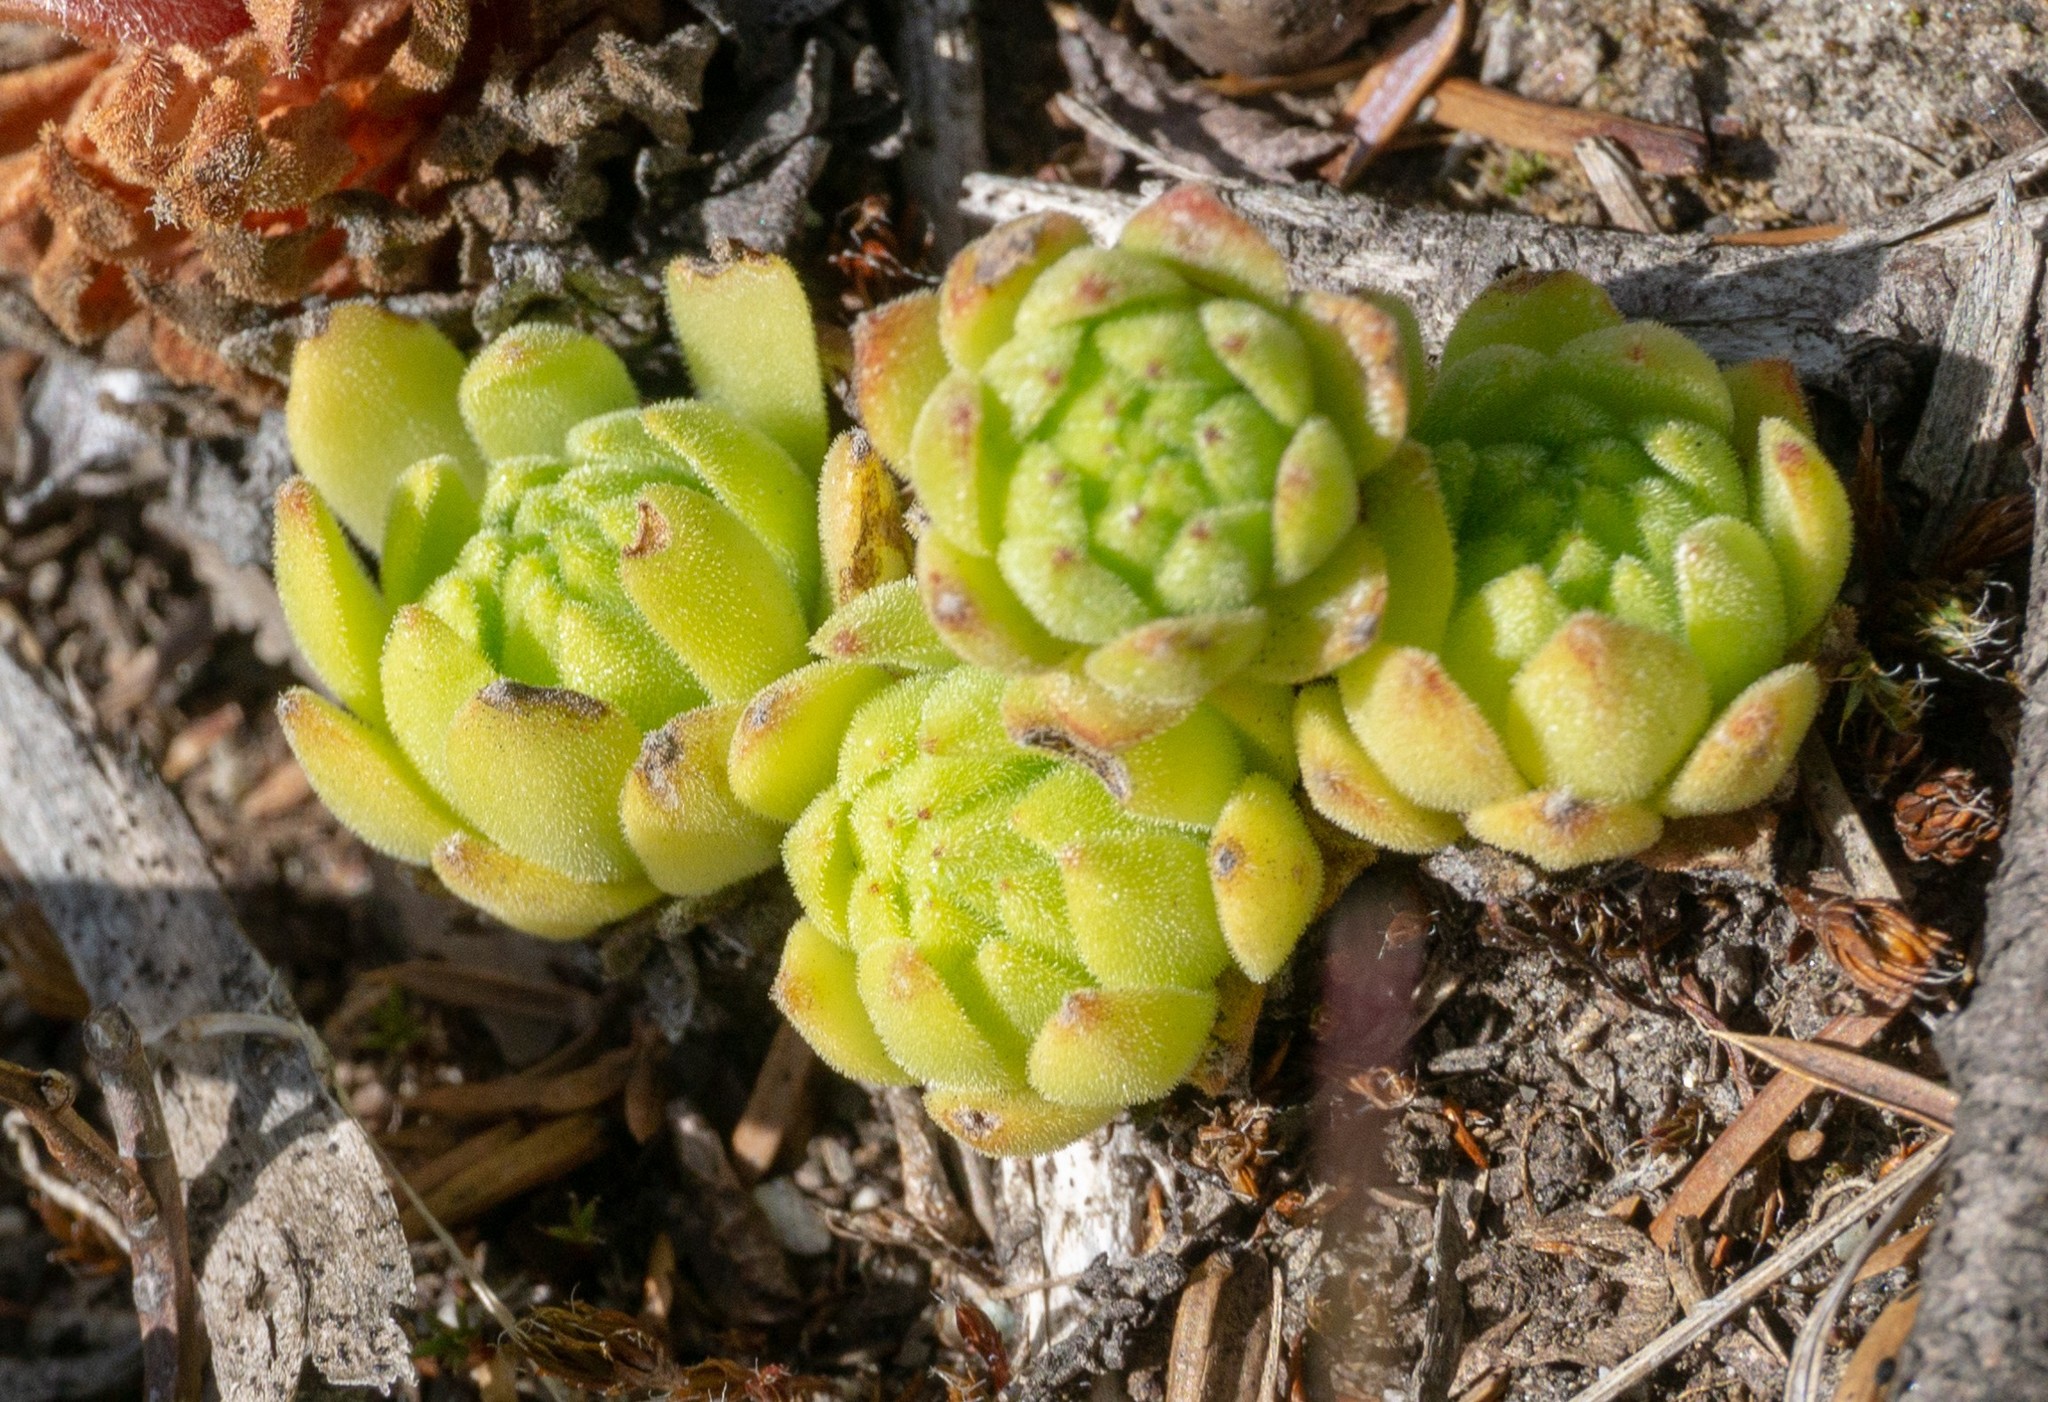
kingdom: Plantae
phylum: Tracheophyta
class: Magnoliopsida
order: Saxifragales
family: Crassulaceae
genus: Sempervivum
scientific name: Sempervivum montanum
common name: Mountain house-leek
